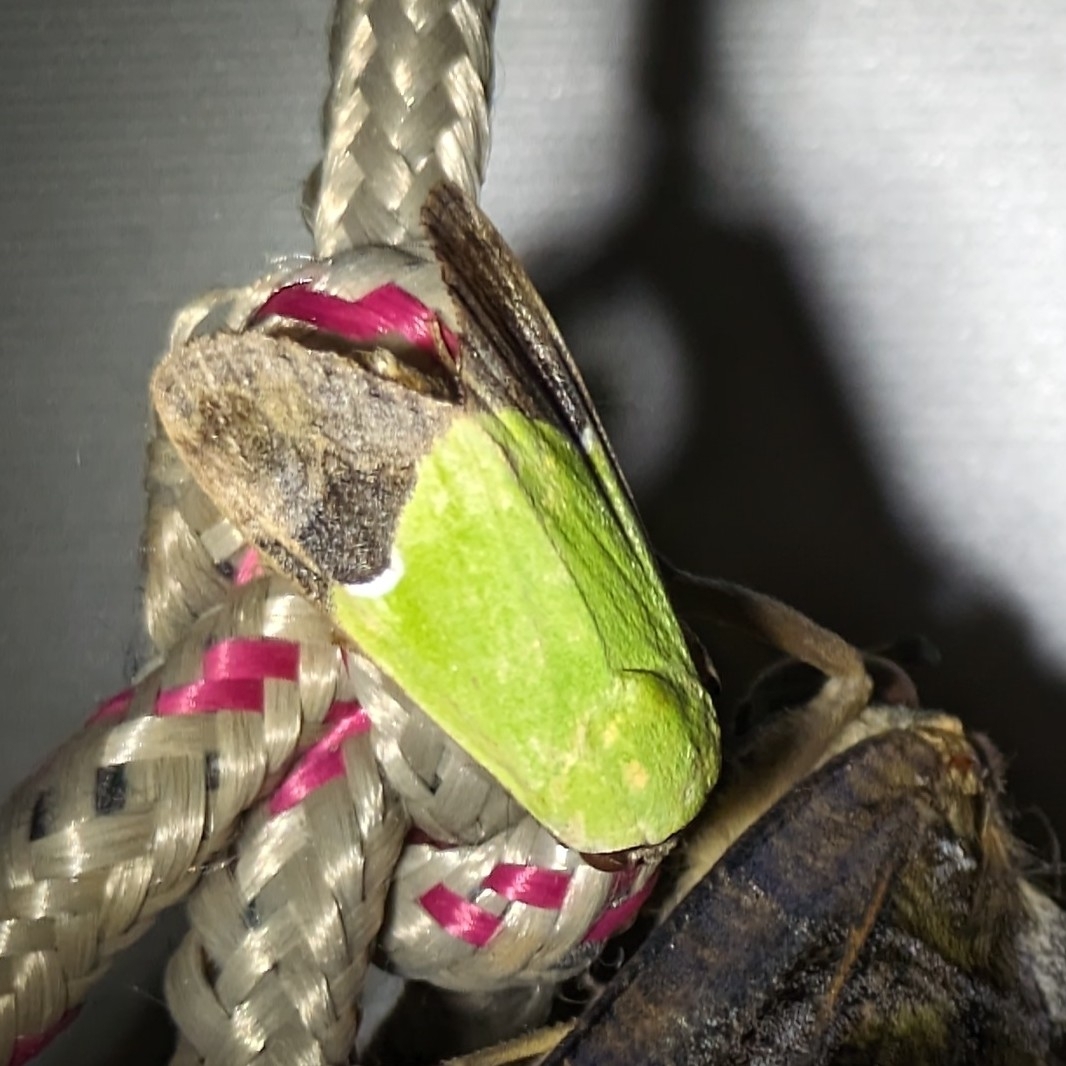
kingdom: Animalia
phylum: Arthropoda
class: Insecta
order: Lepidoptera
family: Erebidae
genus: Hemichloridia
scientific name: Hemichloridia euprepia
